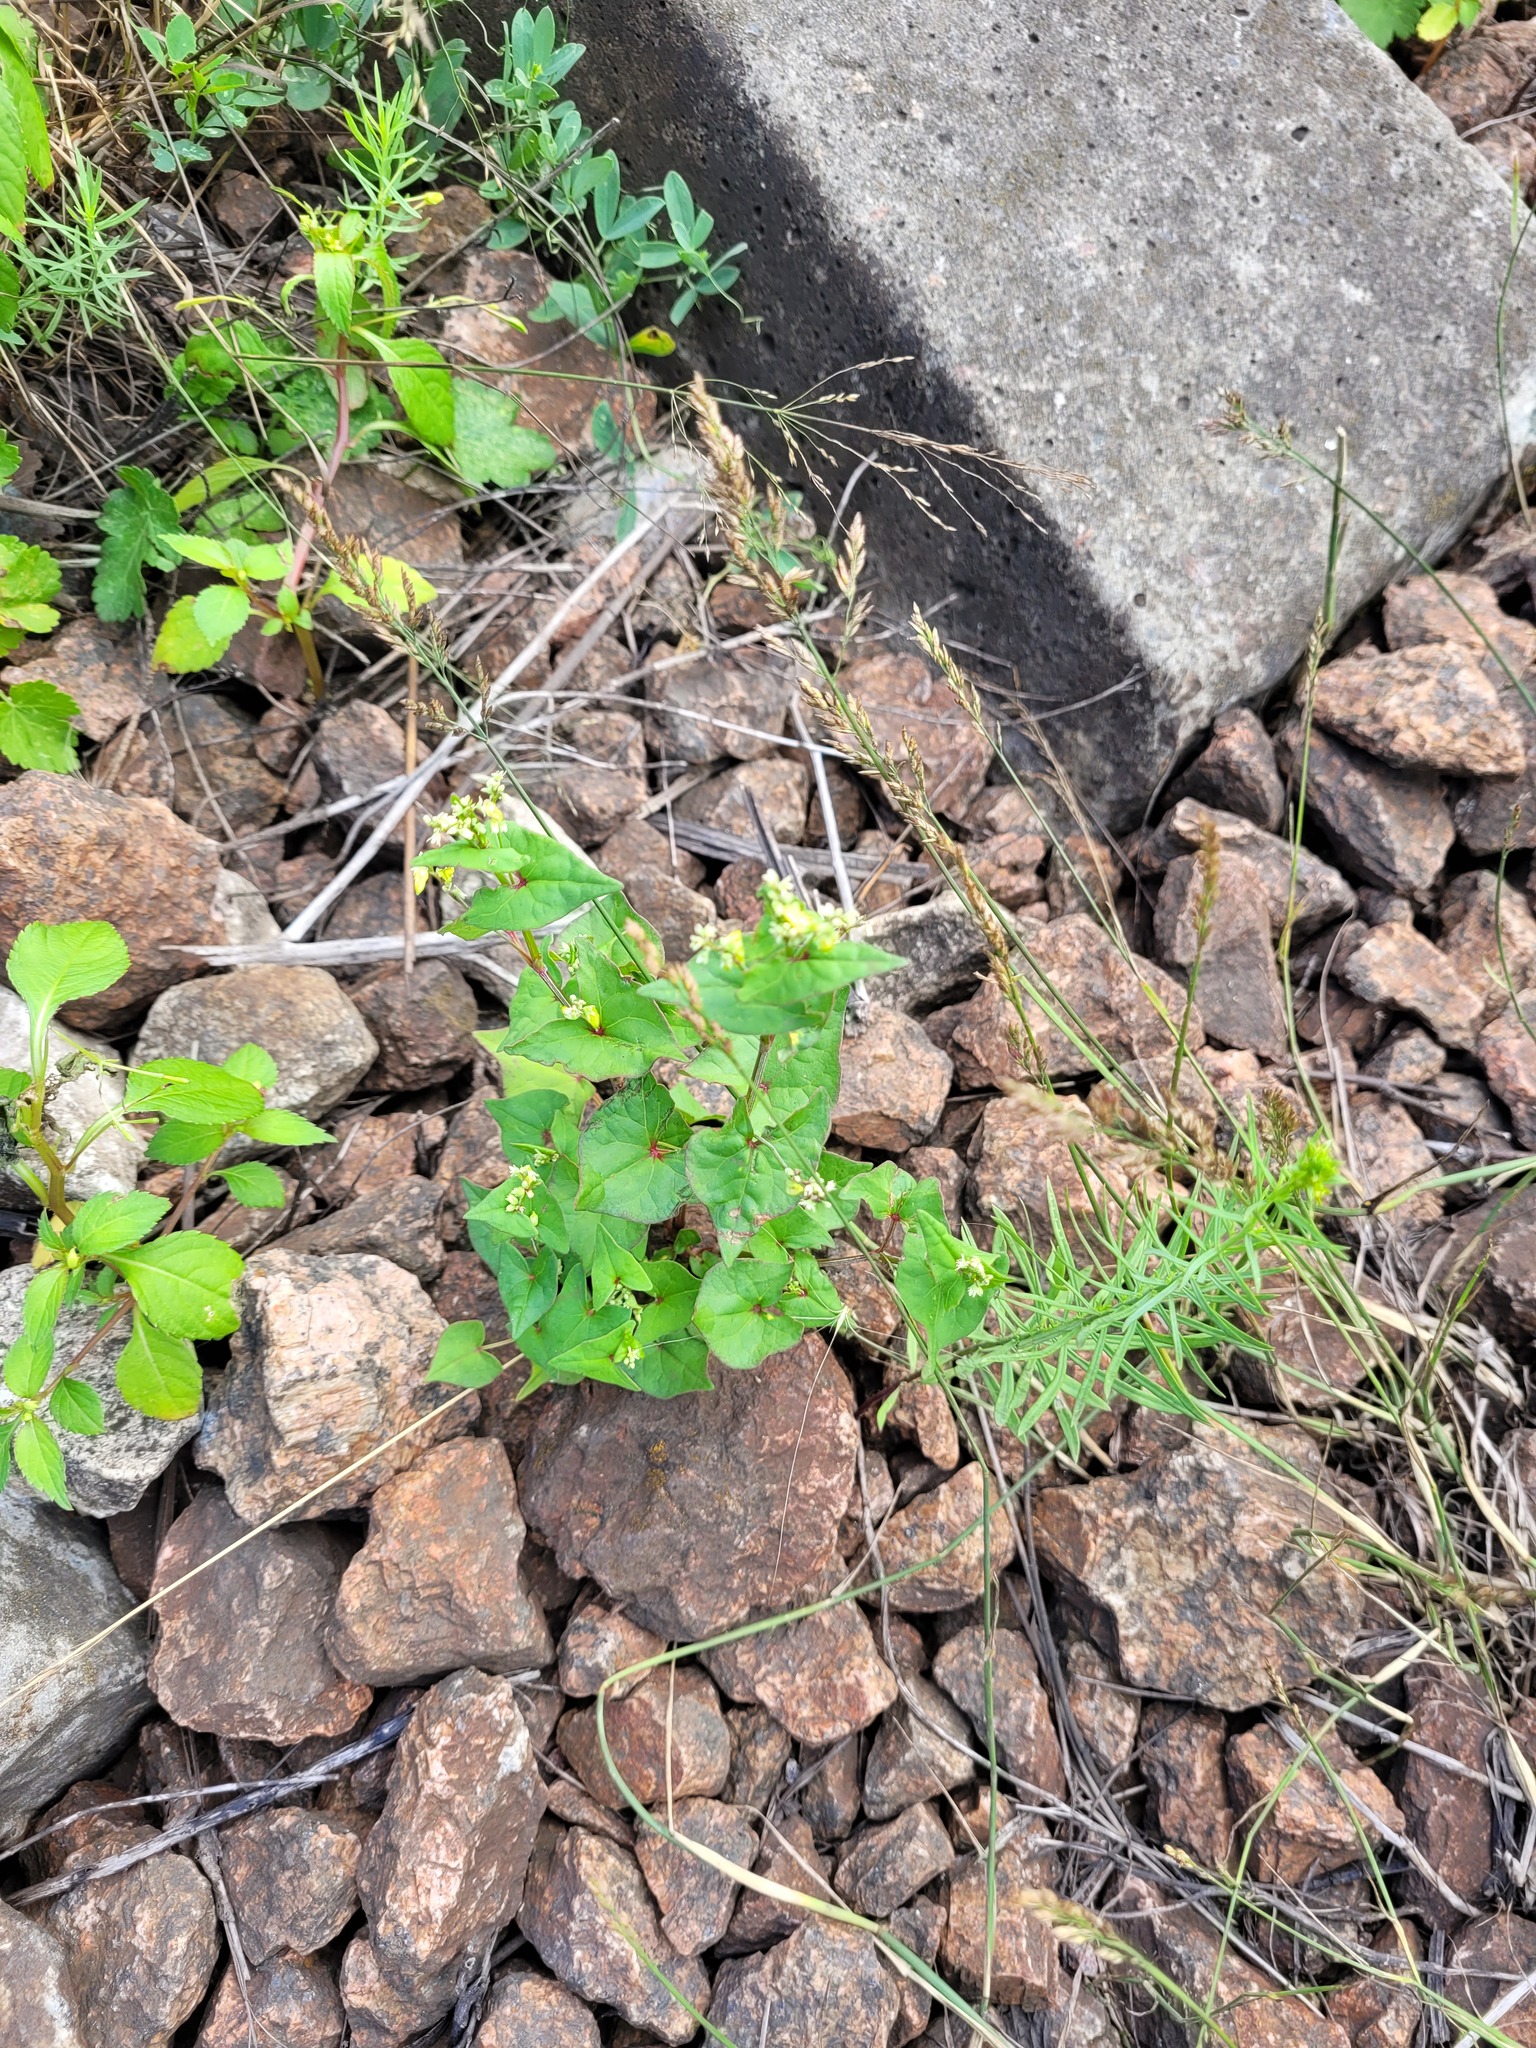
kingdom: Plantae
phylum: Tracheophyta
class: Magnoliopsida
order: Caryophyllales
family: Polygonaceae
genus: Fagopyrum
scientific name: Fagopyrum tataricum
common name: Green buckwheat
